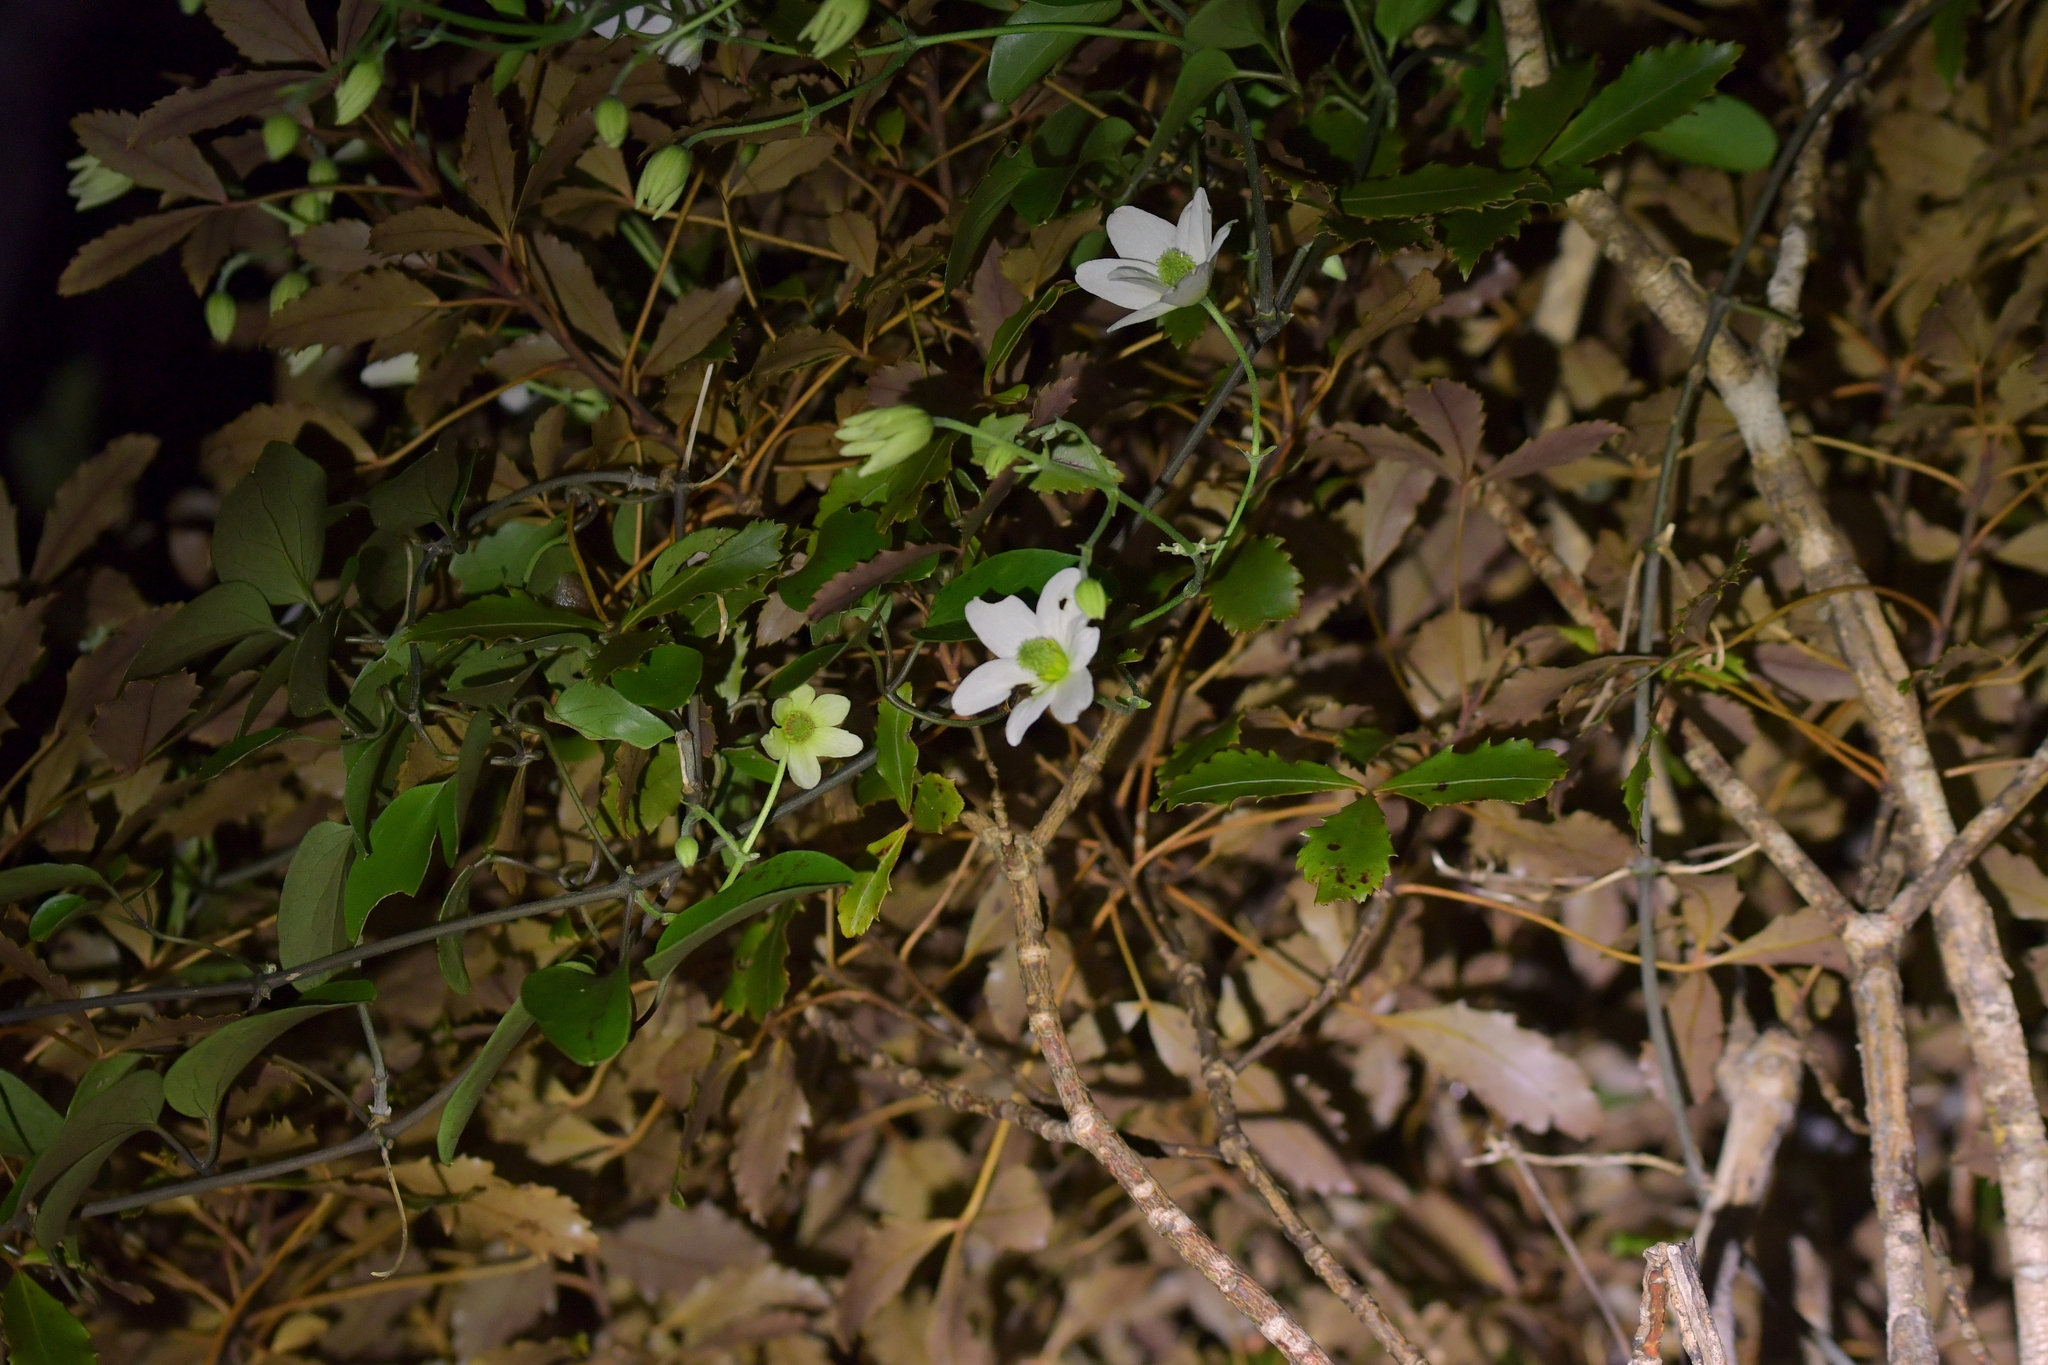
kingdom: Plantae
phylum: Tracheophyta
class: Magnoliopsida
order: Ranunculales
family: Ranunculaceae
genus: Clematis
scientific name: Clematis paniculata
